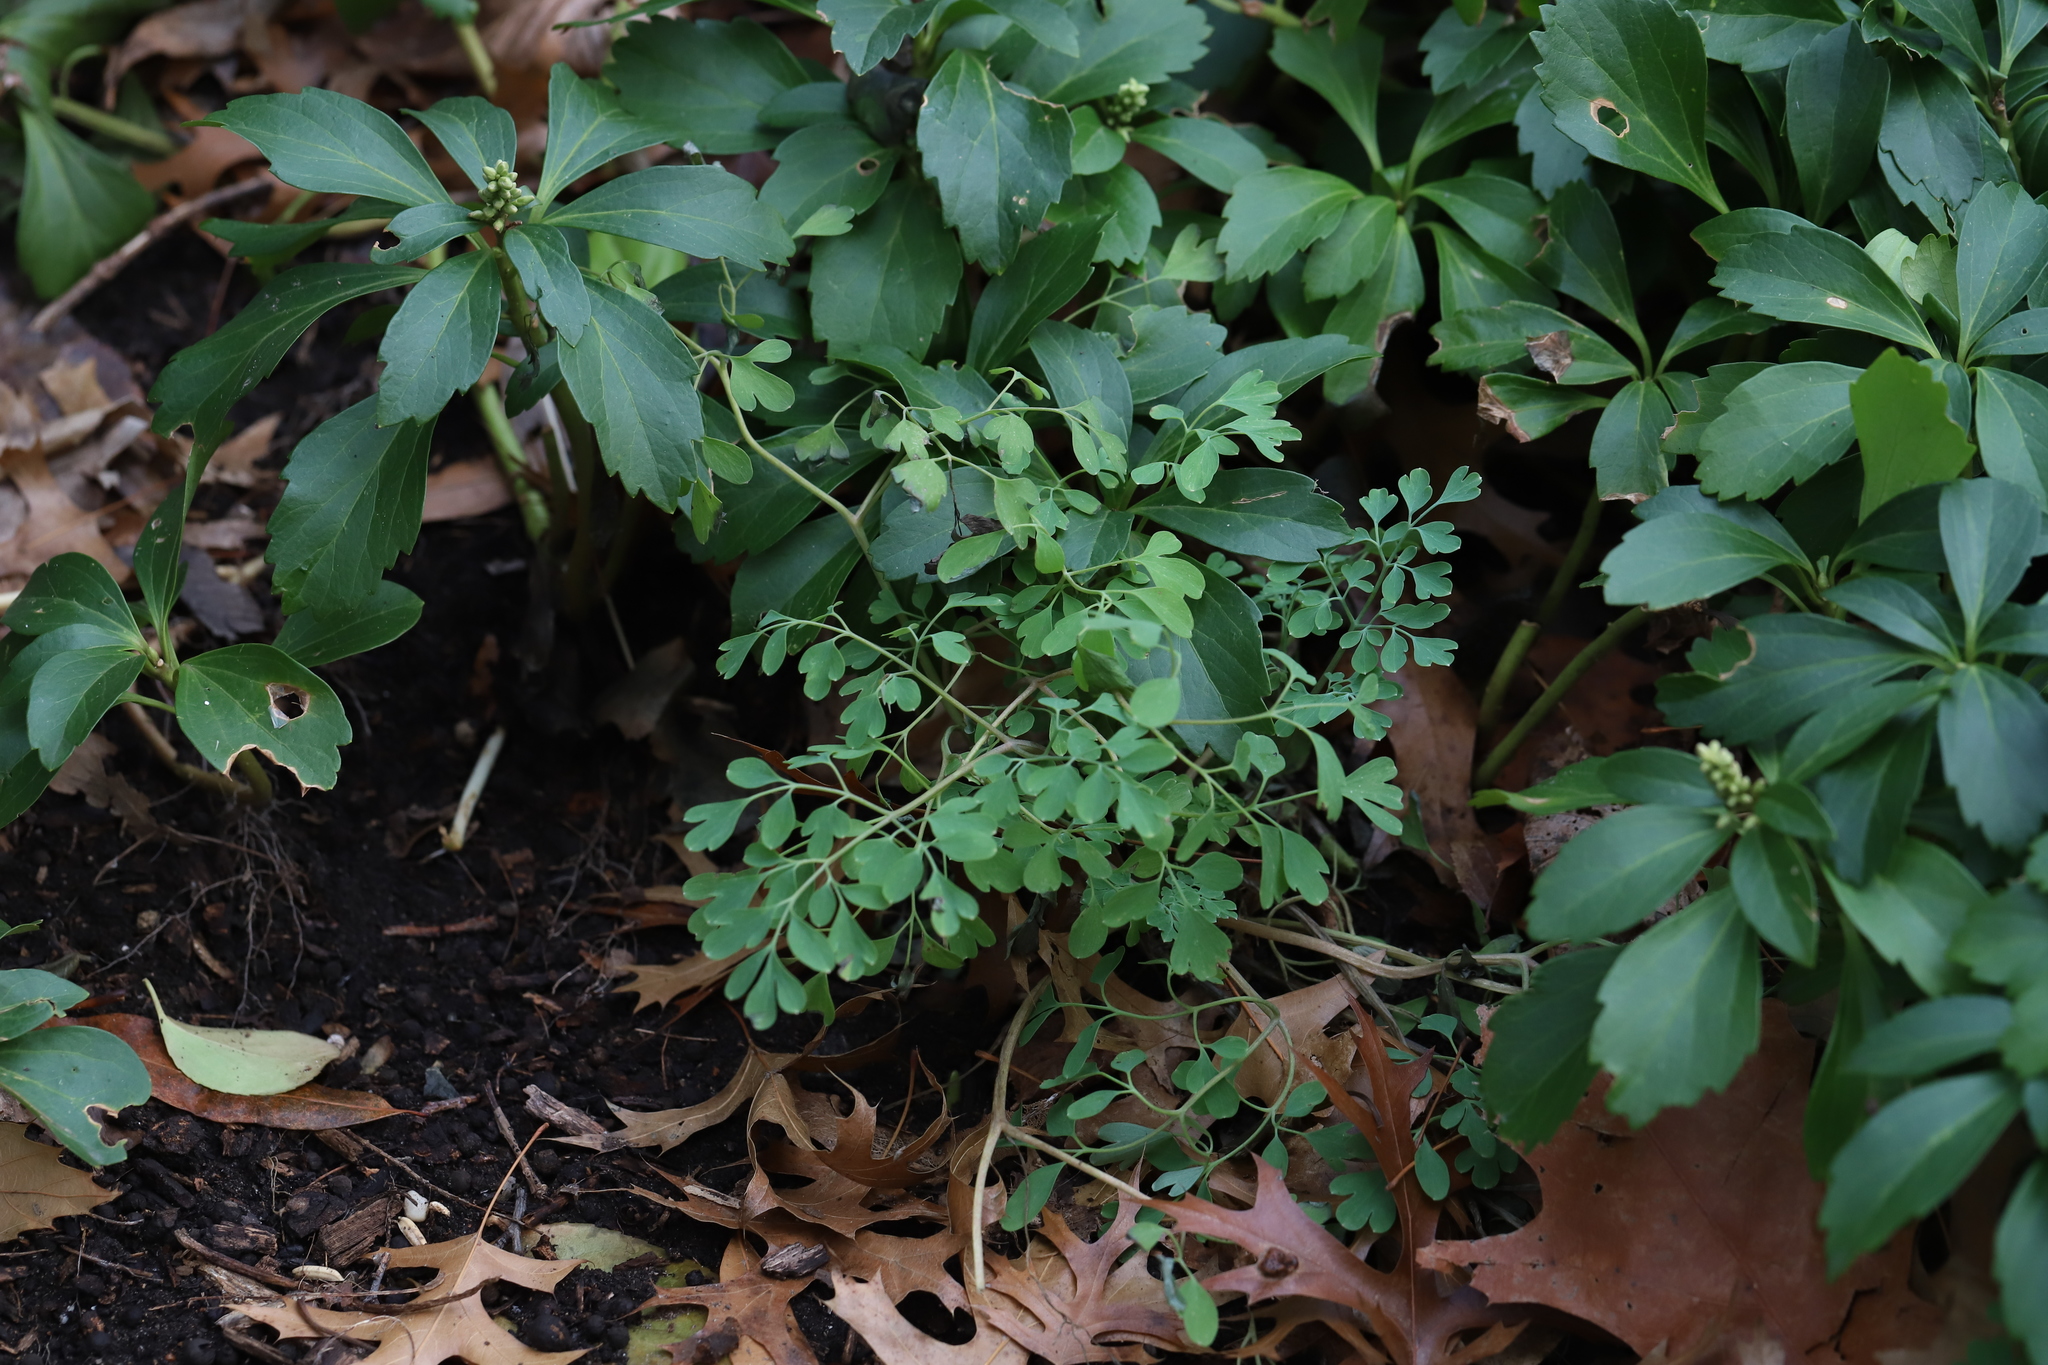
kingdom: Plantae
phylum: Tracheophyta
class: Magnoliopsida
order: Ranunculales
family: Papaveraceae
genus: Pseudofumaria
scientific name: Pseudofumaria lutea
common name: Yellow corydalis
